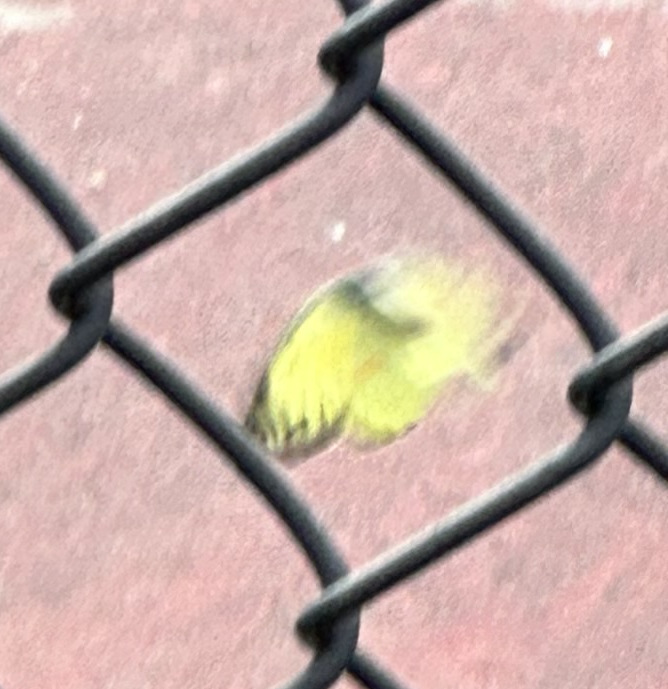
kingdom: Animalia
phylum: Arthropoda
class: Insecta
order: Lepidoptera
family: Pieridae
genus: Colias
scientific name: Colias philodice
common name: Clouded sulphur
